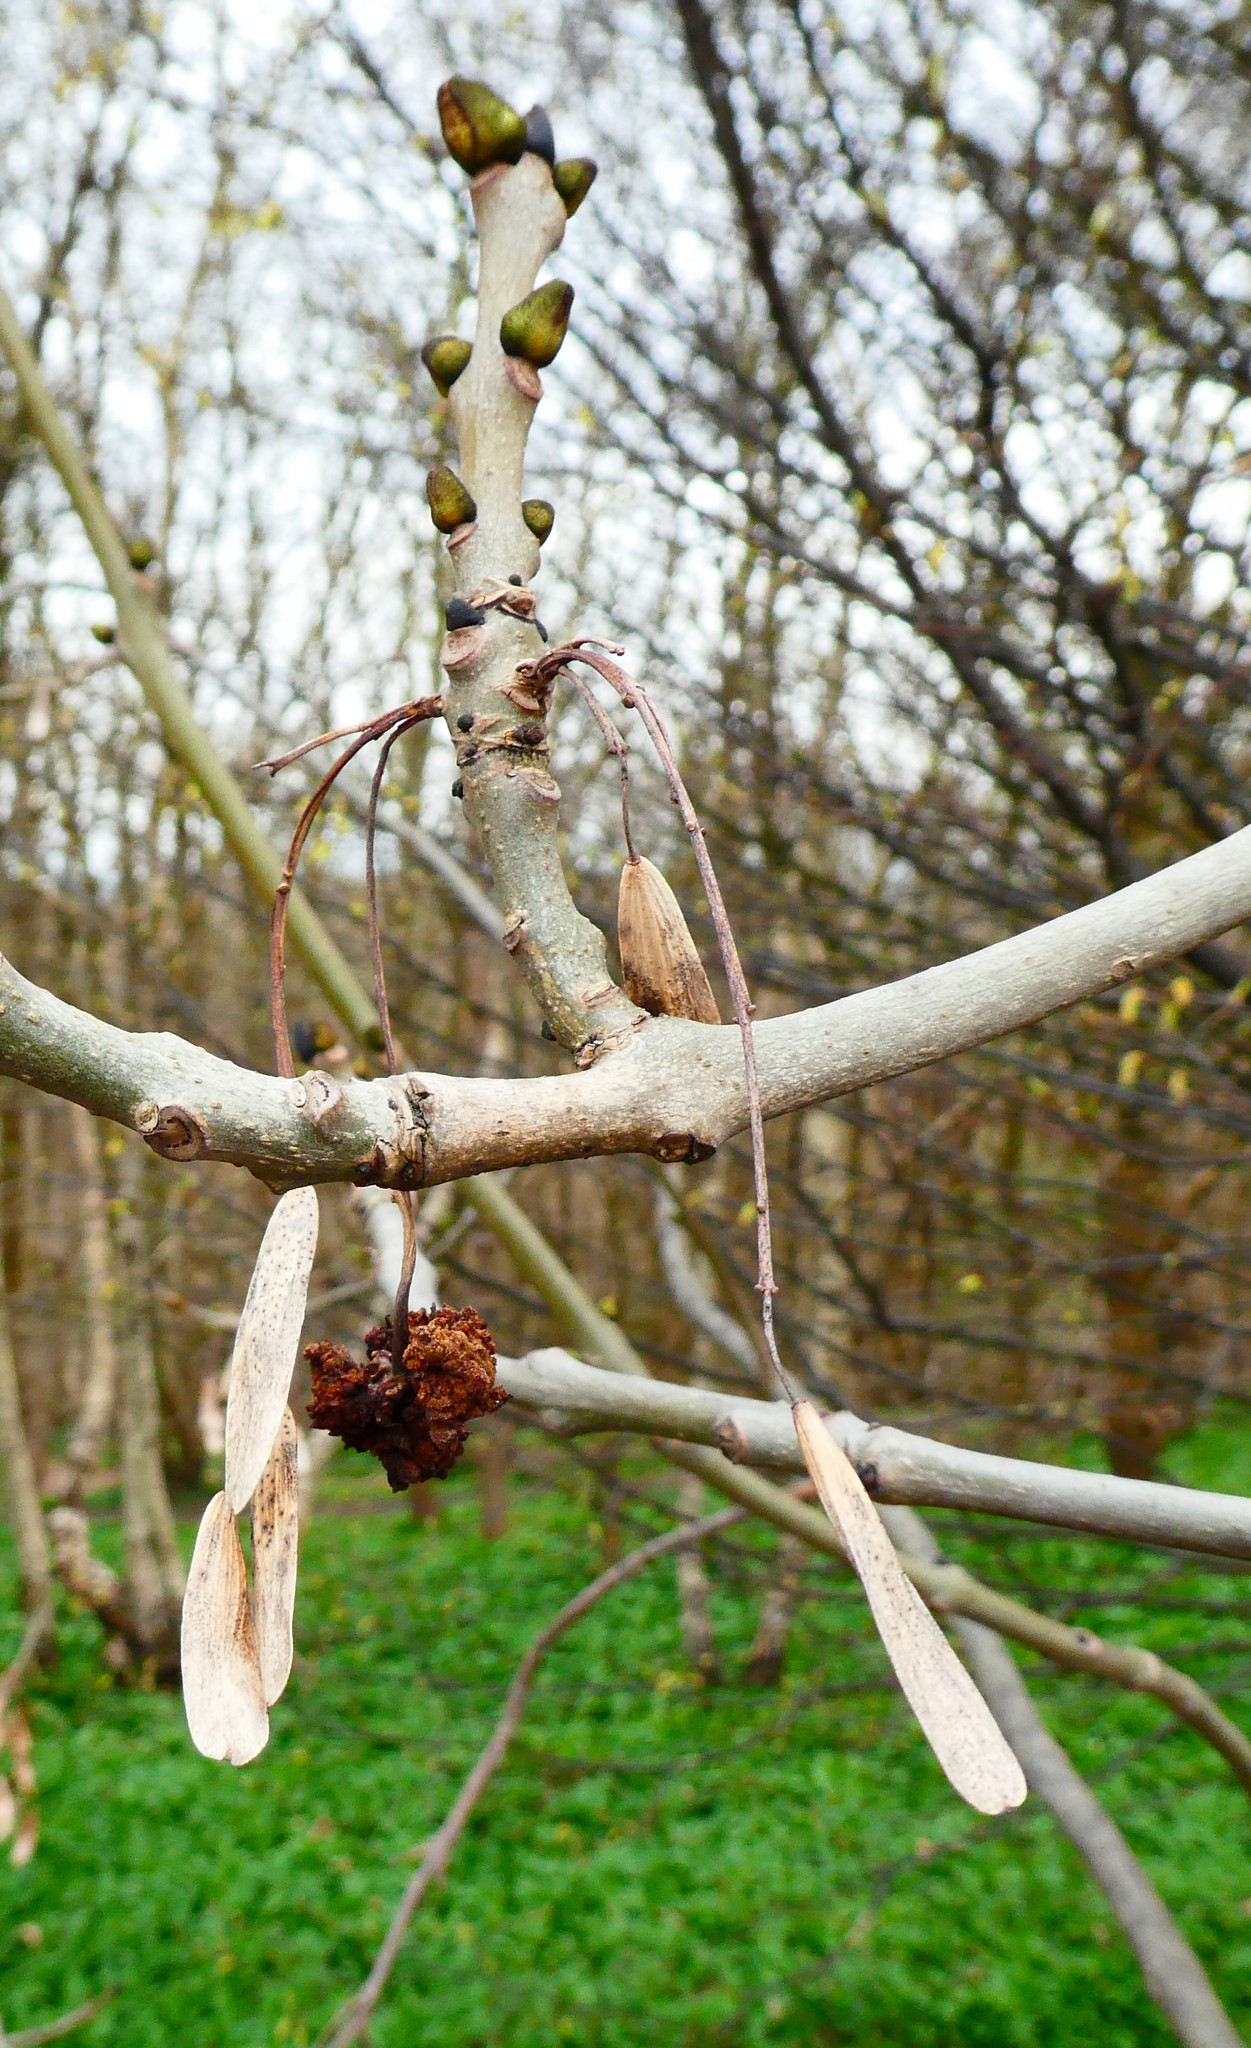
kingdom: Animalia
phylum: Arthropoda
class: Arachnida
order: Trombidiformes
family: Eriophyidae
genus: Aceria
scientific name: Aceria fraxinivora
